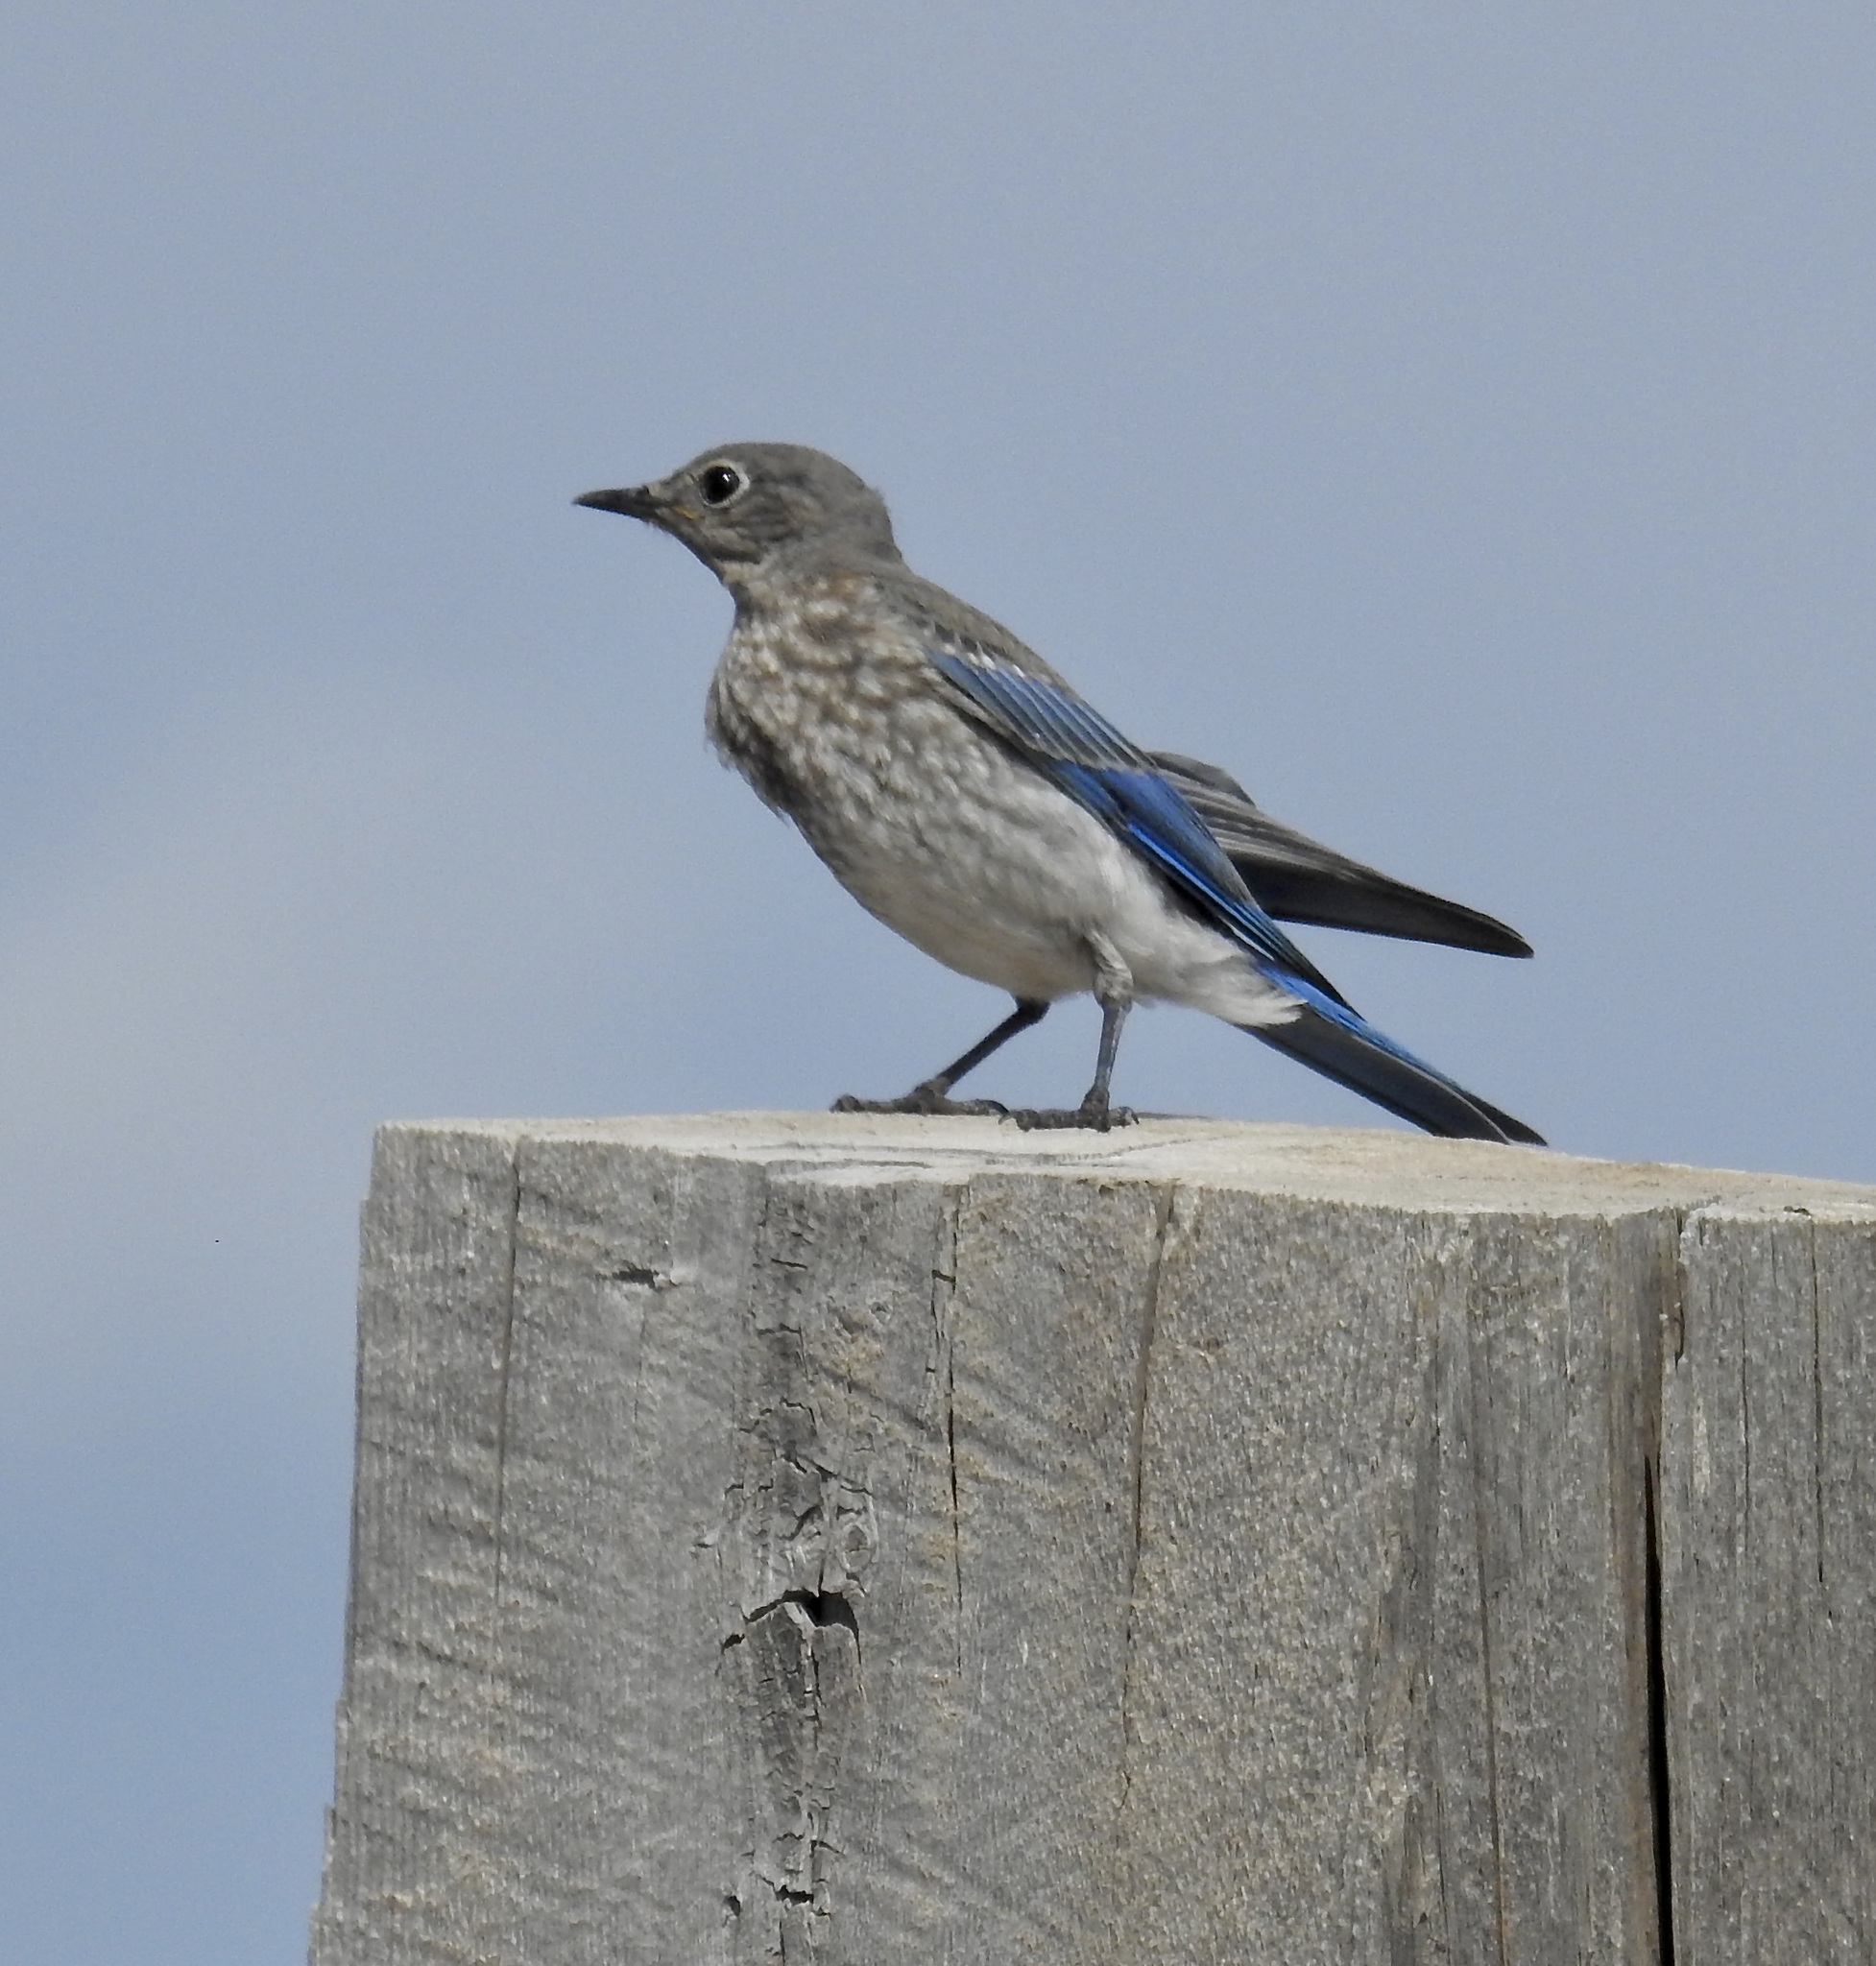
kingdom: Animalia
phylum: Chordata
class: Aves
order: Passeriformes
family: Turdidae
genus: Sialia
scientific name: Sialia currucoides
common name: Mountain bluebird
